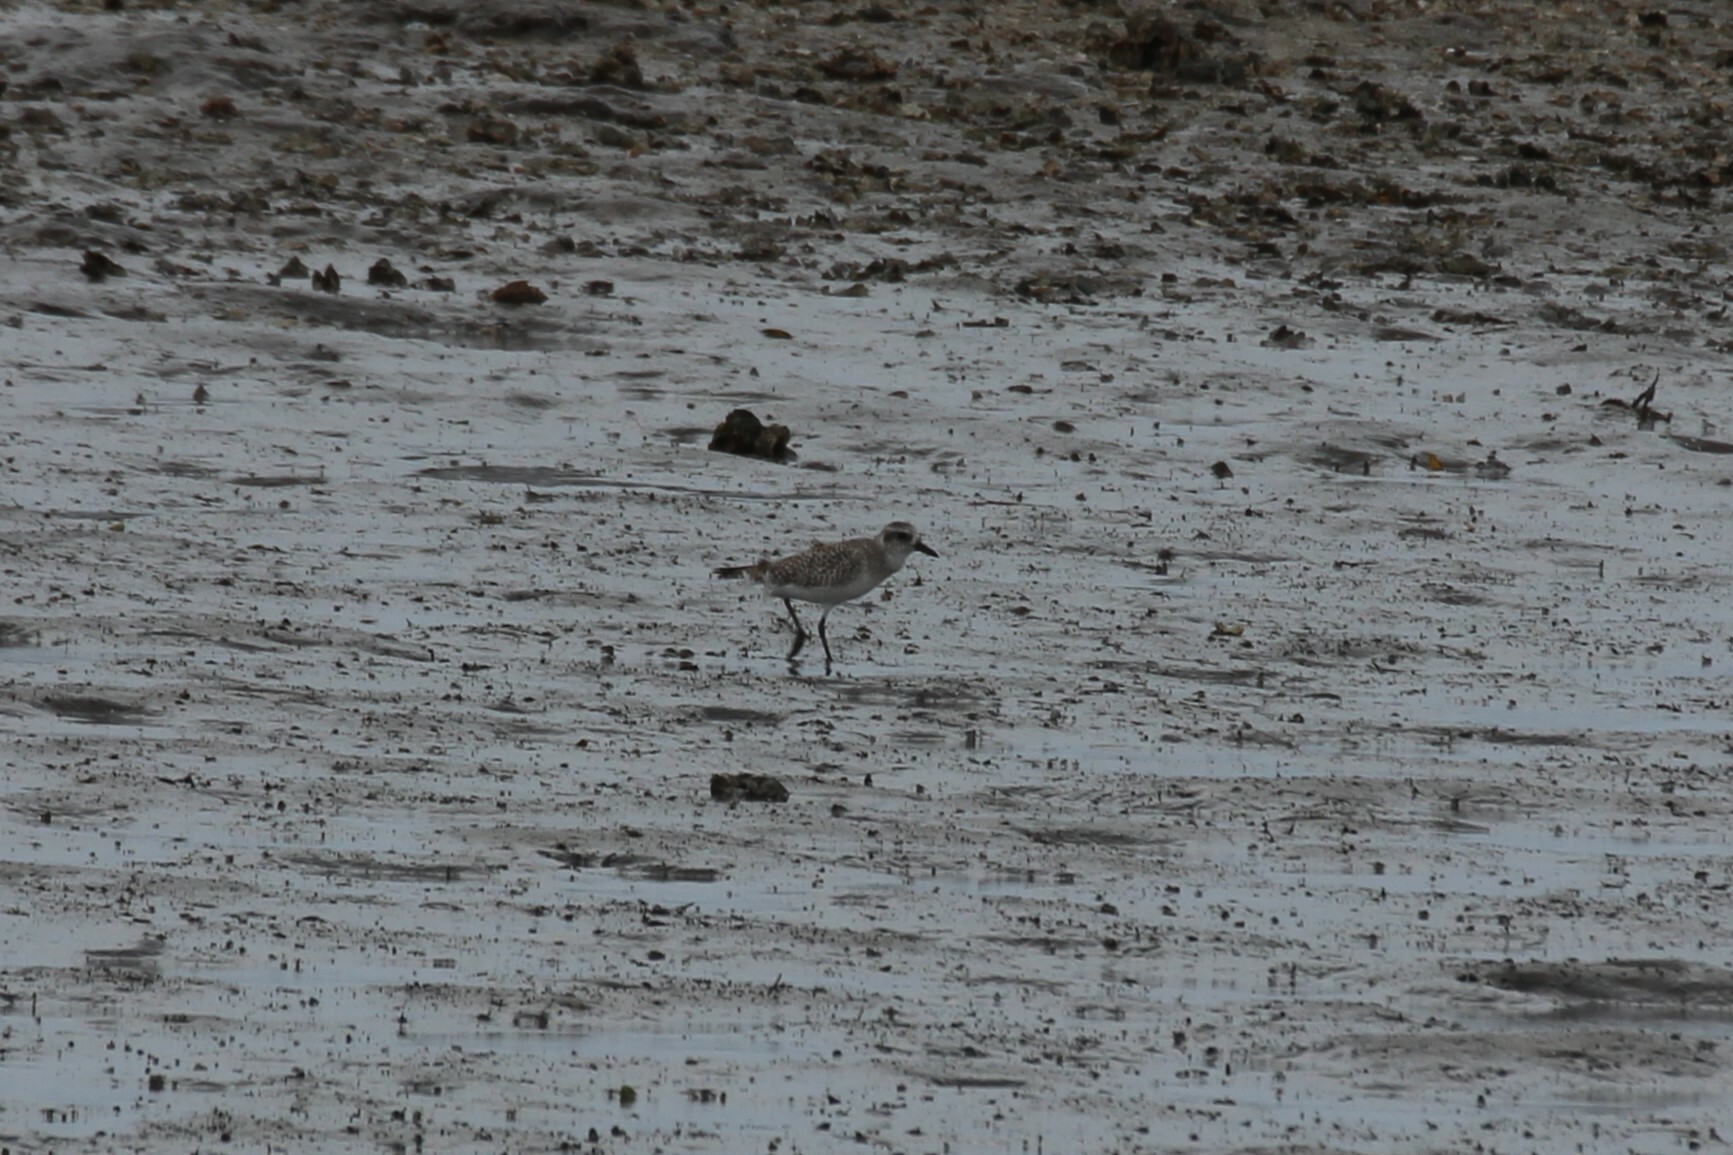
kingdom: Animalia
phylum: Chordata
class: Aves
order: Charadriiformes
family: Charadriidae
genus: Pluvialis
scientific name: Pluvialis squatarola
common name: Grey plover
